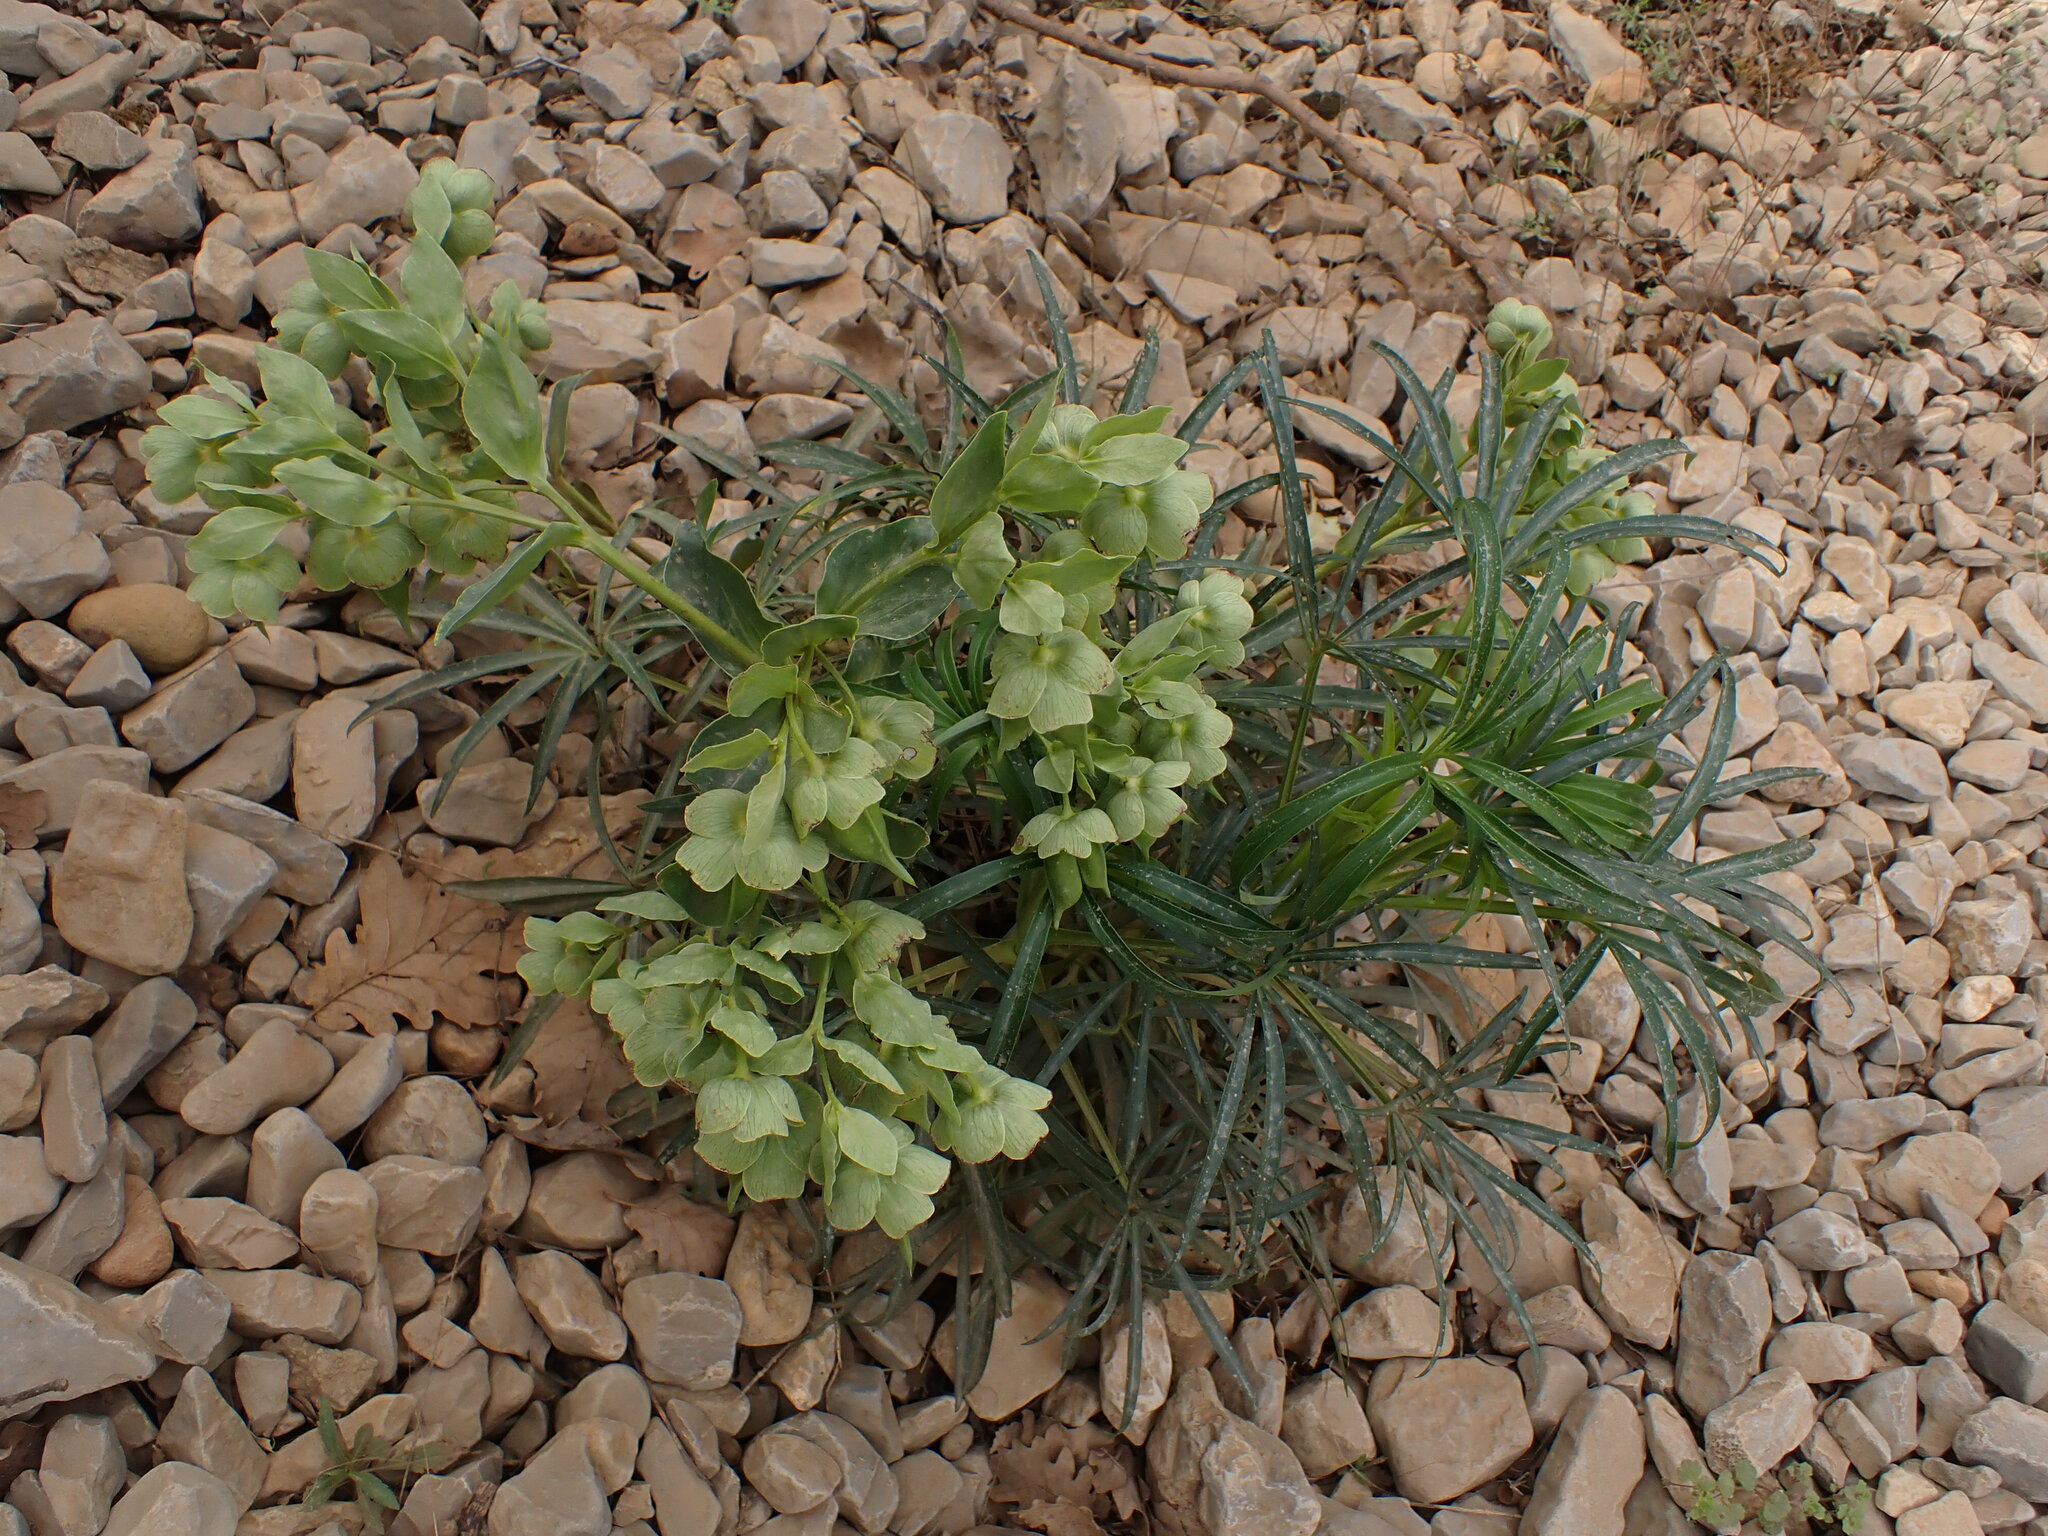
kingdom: Plantae
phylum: Tracheophyta
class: Magnoliopsida
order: Ranunculales
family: Ranunculaceae
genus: Helleborus
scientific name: Helleborus foetidus
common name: Stinking hellebore
